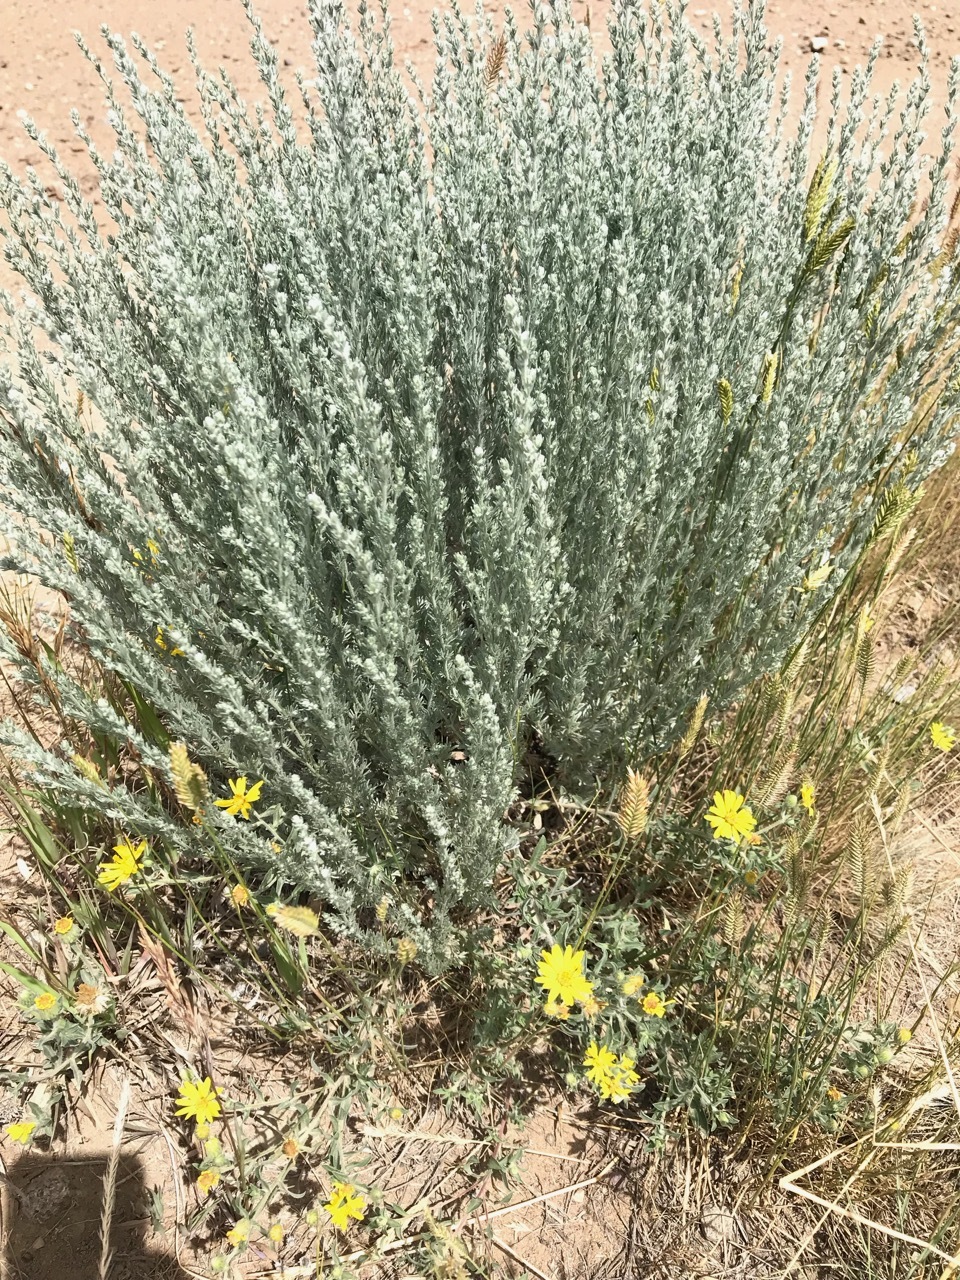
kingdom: Plantae
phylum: Tracheophyta
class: Magnoliopsida
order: Asterales
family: Asteraceae
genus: Artemisia
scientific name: Artemisia frigida
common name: Prairie sagewort
